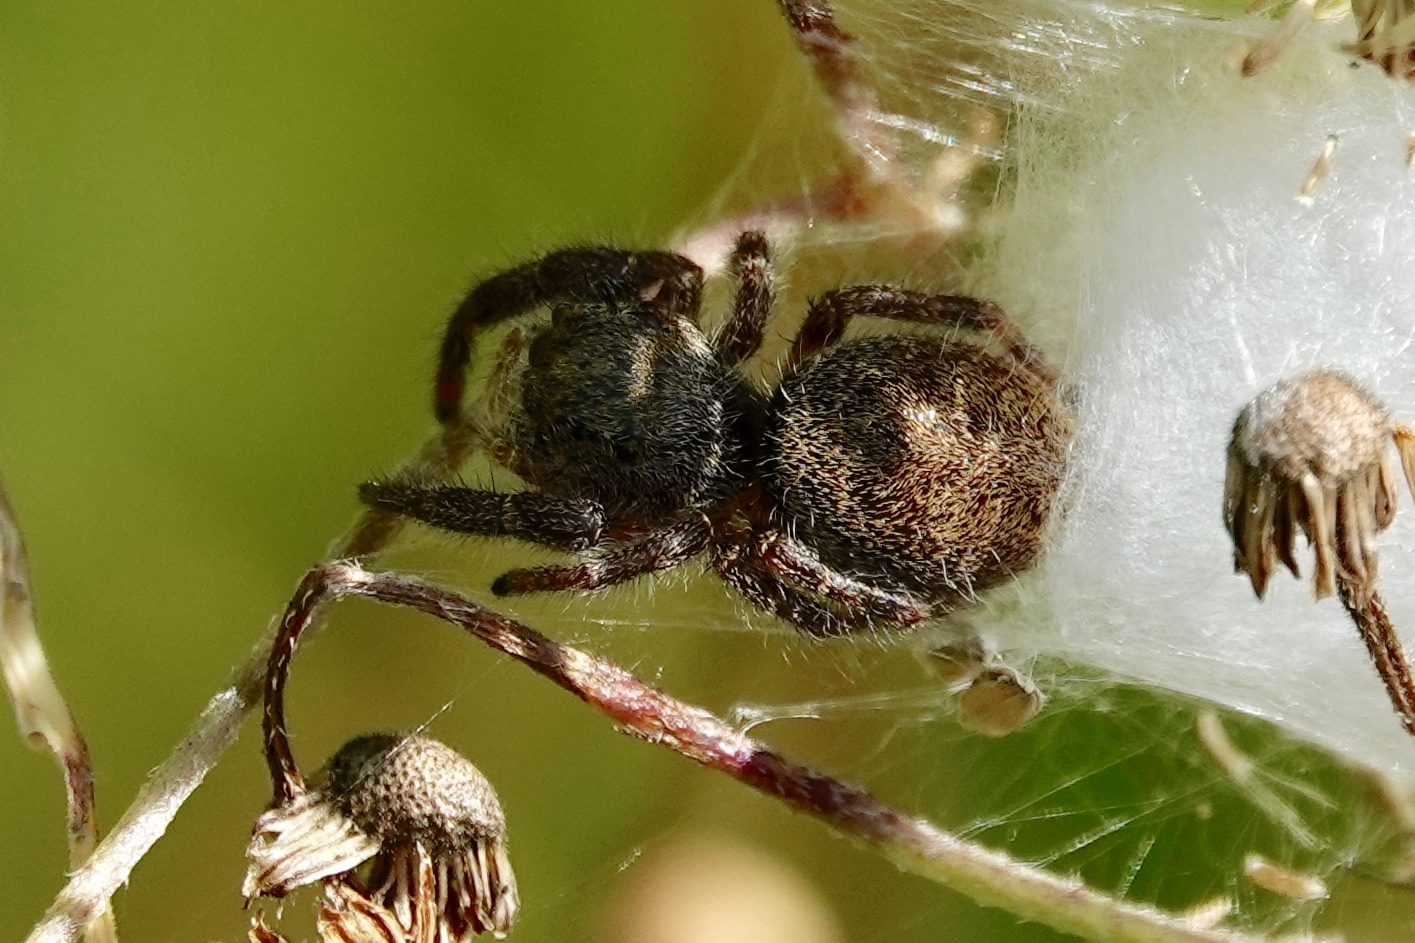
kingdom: Animalia
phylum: Arthropoda
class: Arachnida
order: Araneae
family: Salticidae
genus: Phidippus
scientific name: Phidippus princeps
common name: Grayish jumping spider
